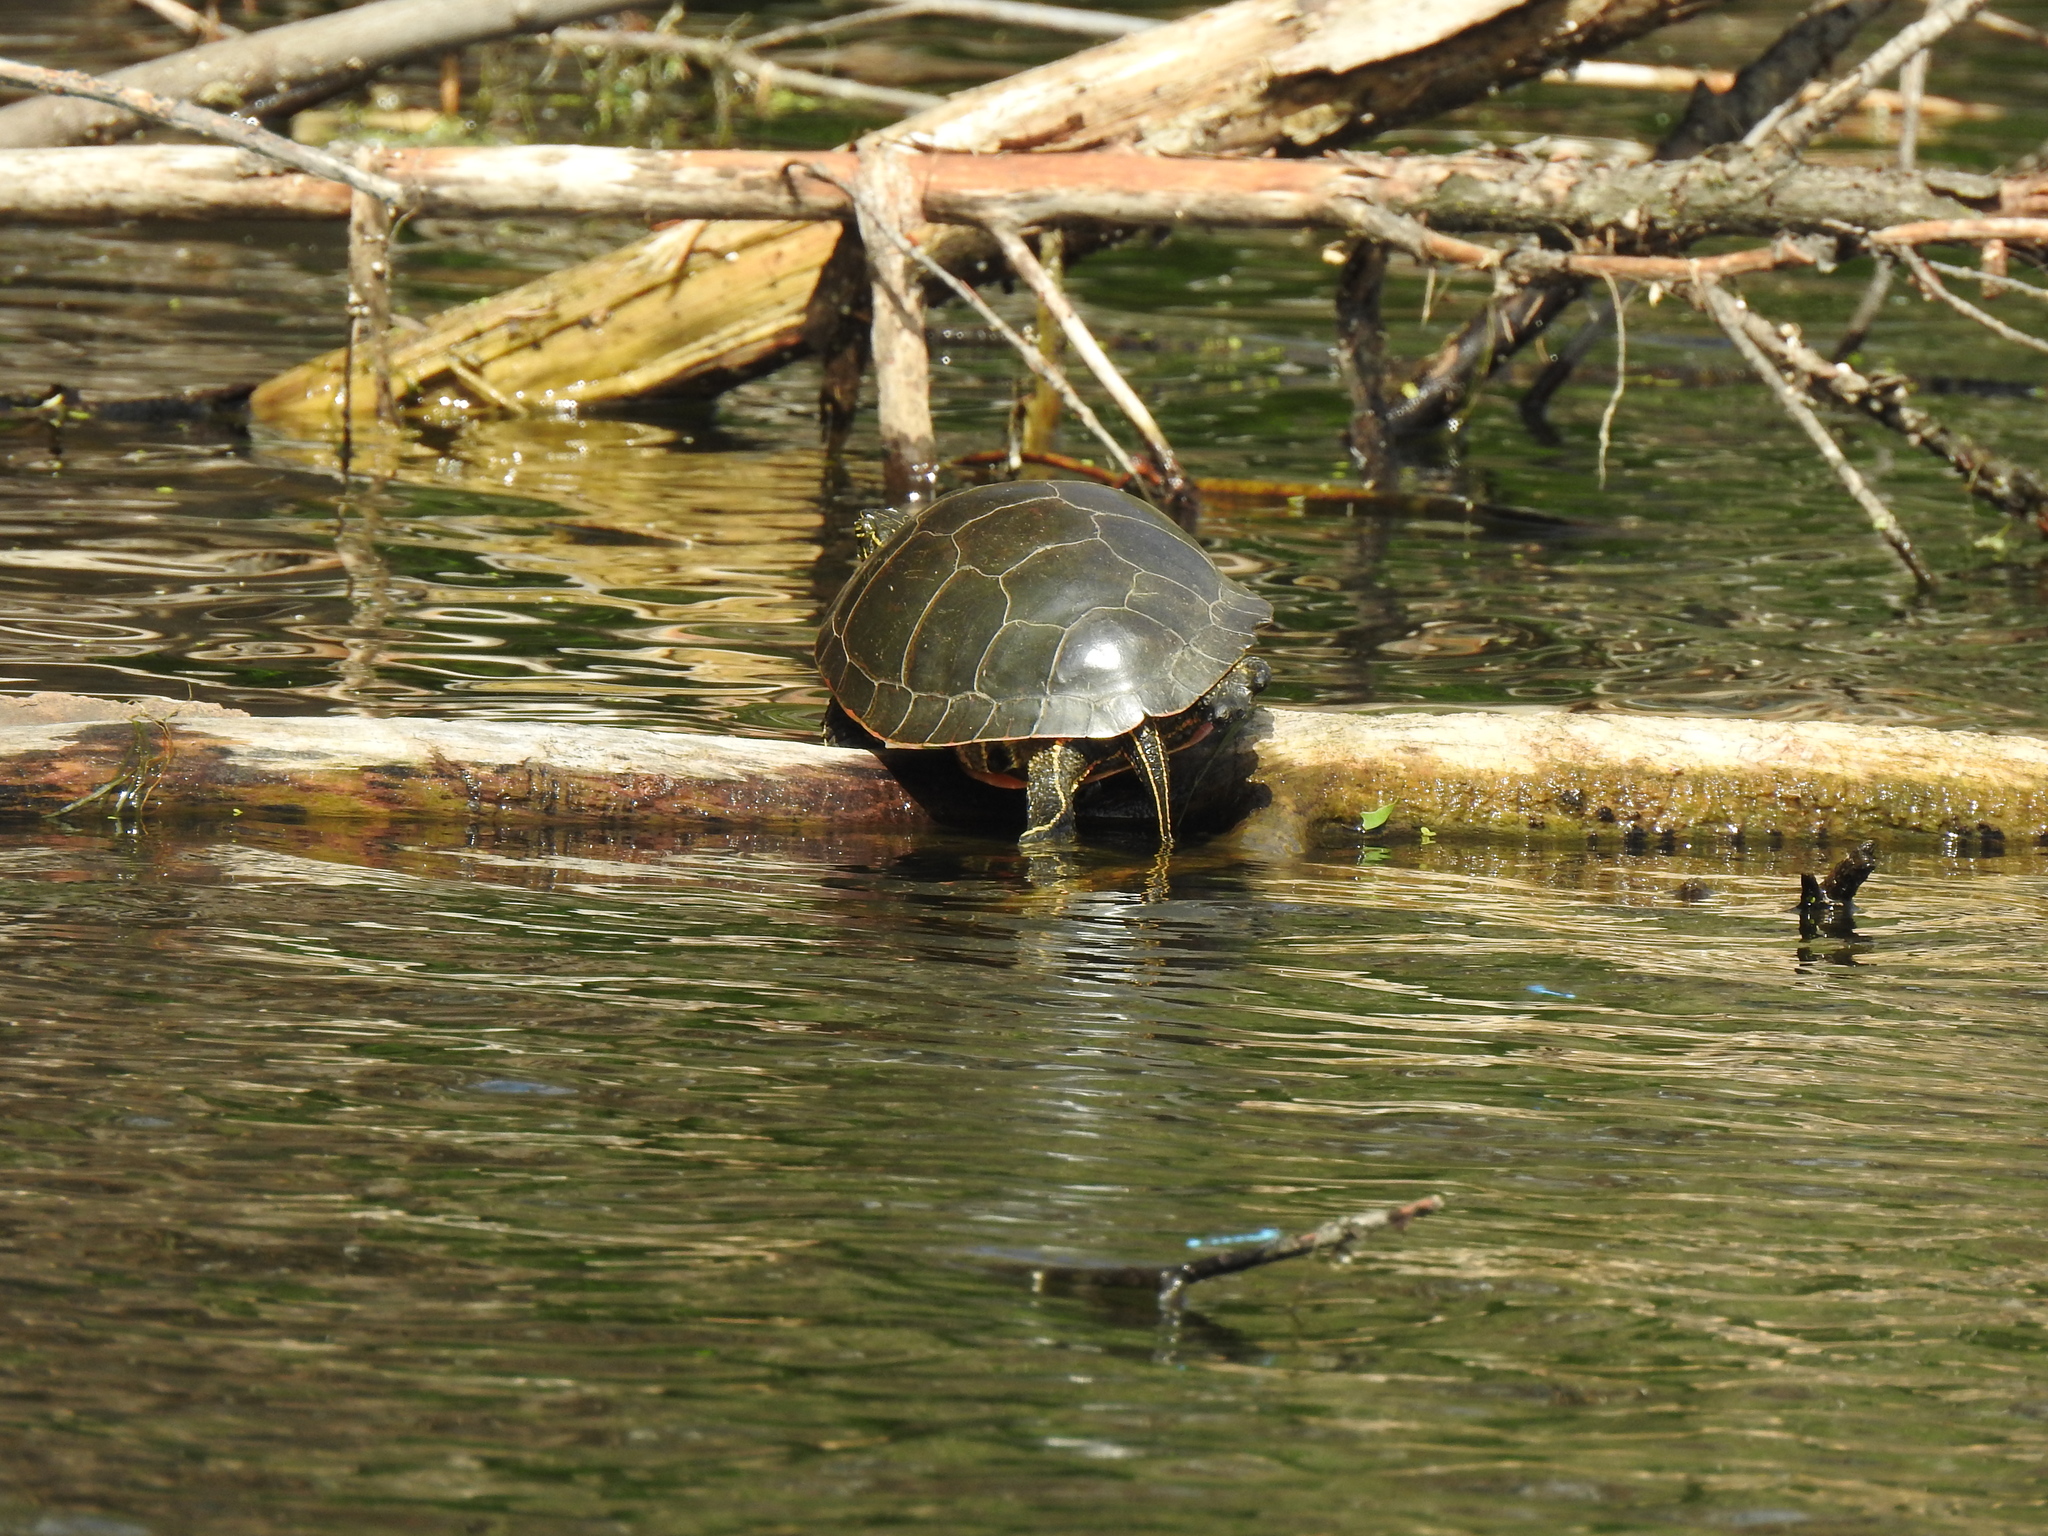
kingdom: Animalia
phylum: Chordata
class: Testudines
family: Emydidae
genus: Chrysemys
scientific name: Chrysemys picta
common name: Painted turtle
